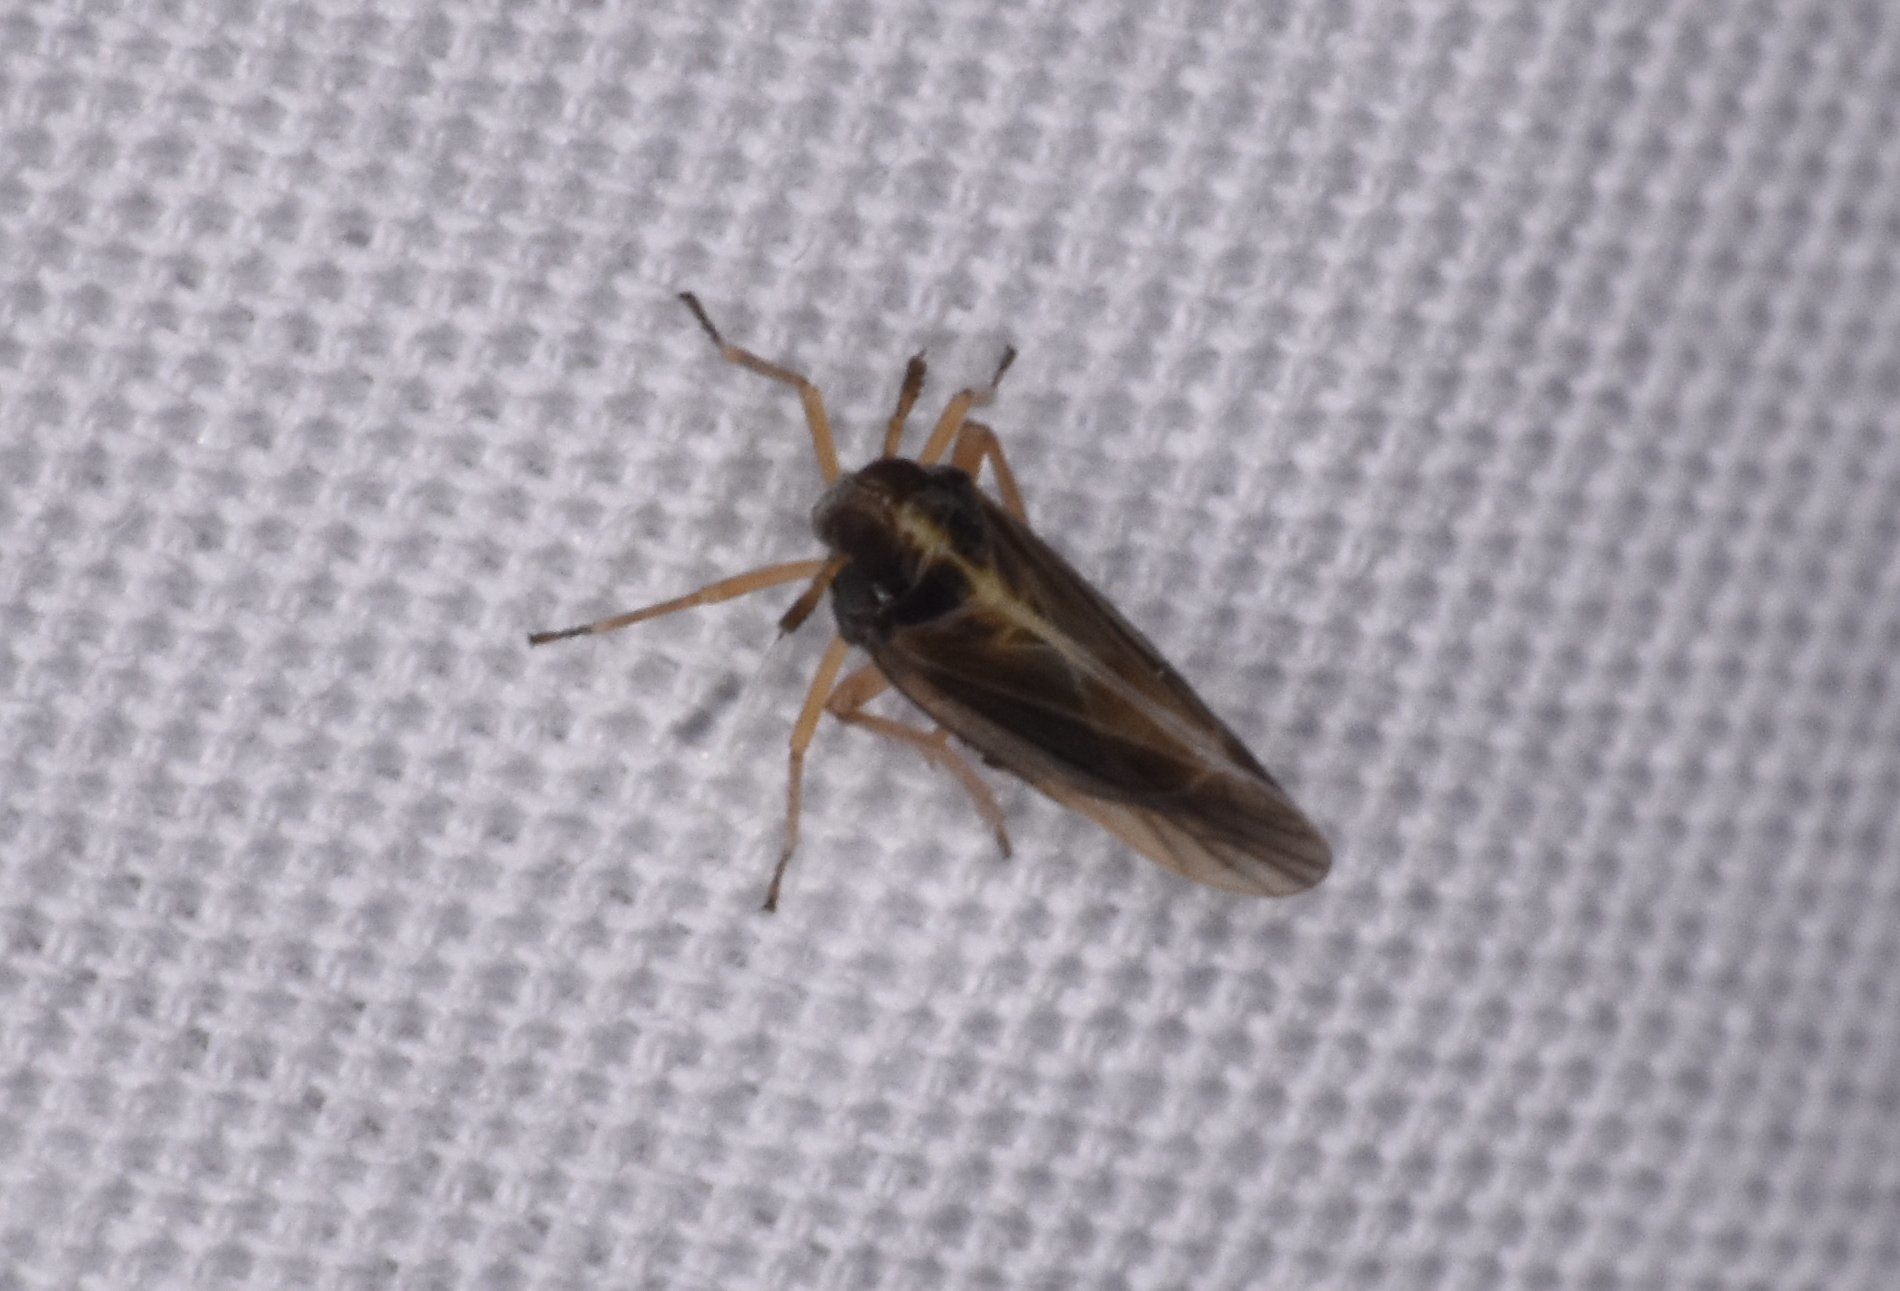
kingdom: Animalia
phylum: Arthropoda
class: Insecta
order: Hemiptera
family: Delphacidae
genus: Tarophagus
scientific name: Tarophagus colocasiae
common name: Taro planthopper
